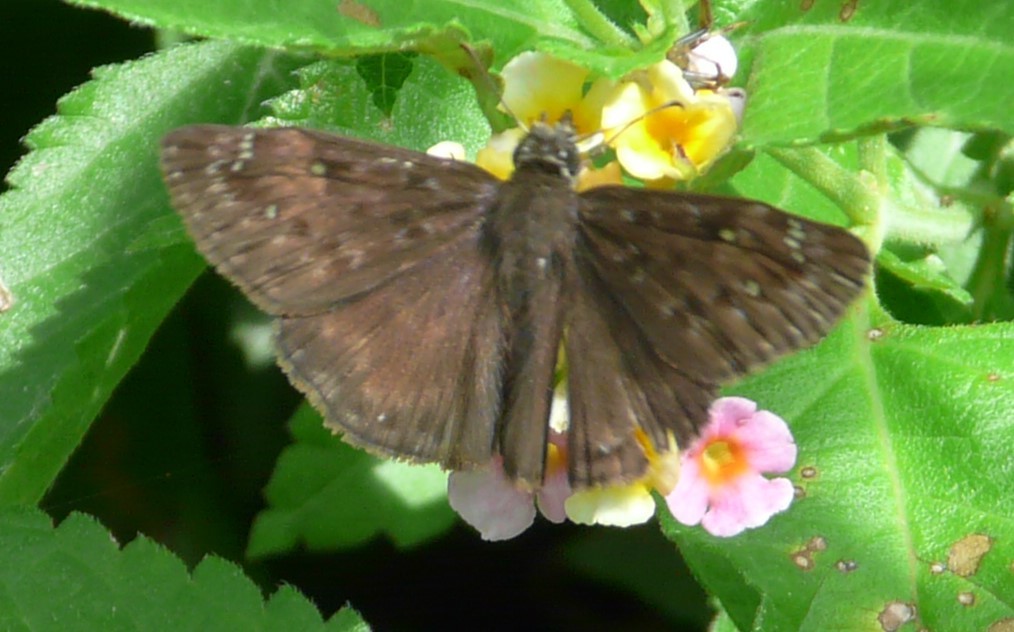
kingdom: Animalia
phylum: Arthropoda
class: Insecta
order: Lepidoptera
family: Hesperiidae
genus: Erynnis
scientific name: Erynnis horatius
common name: Horace's duskywing
